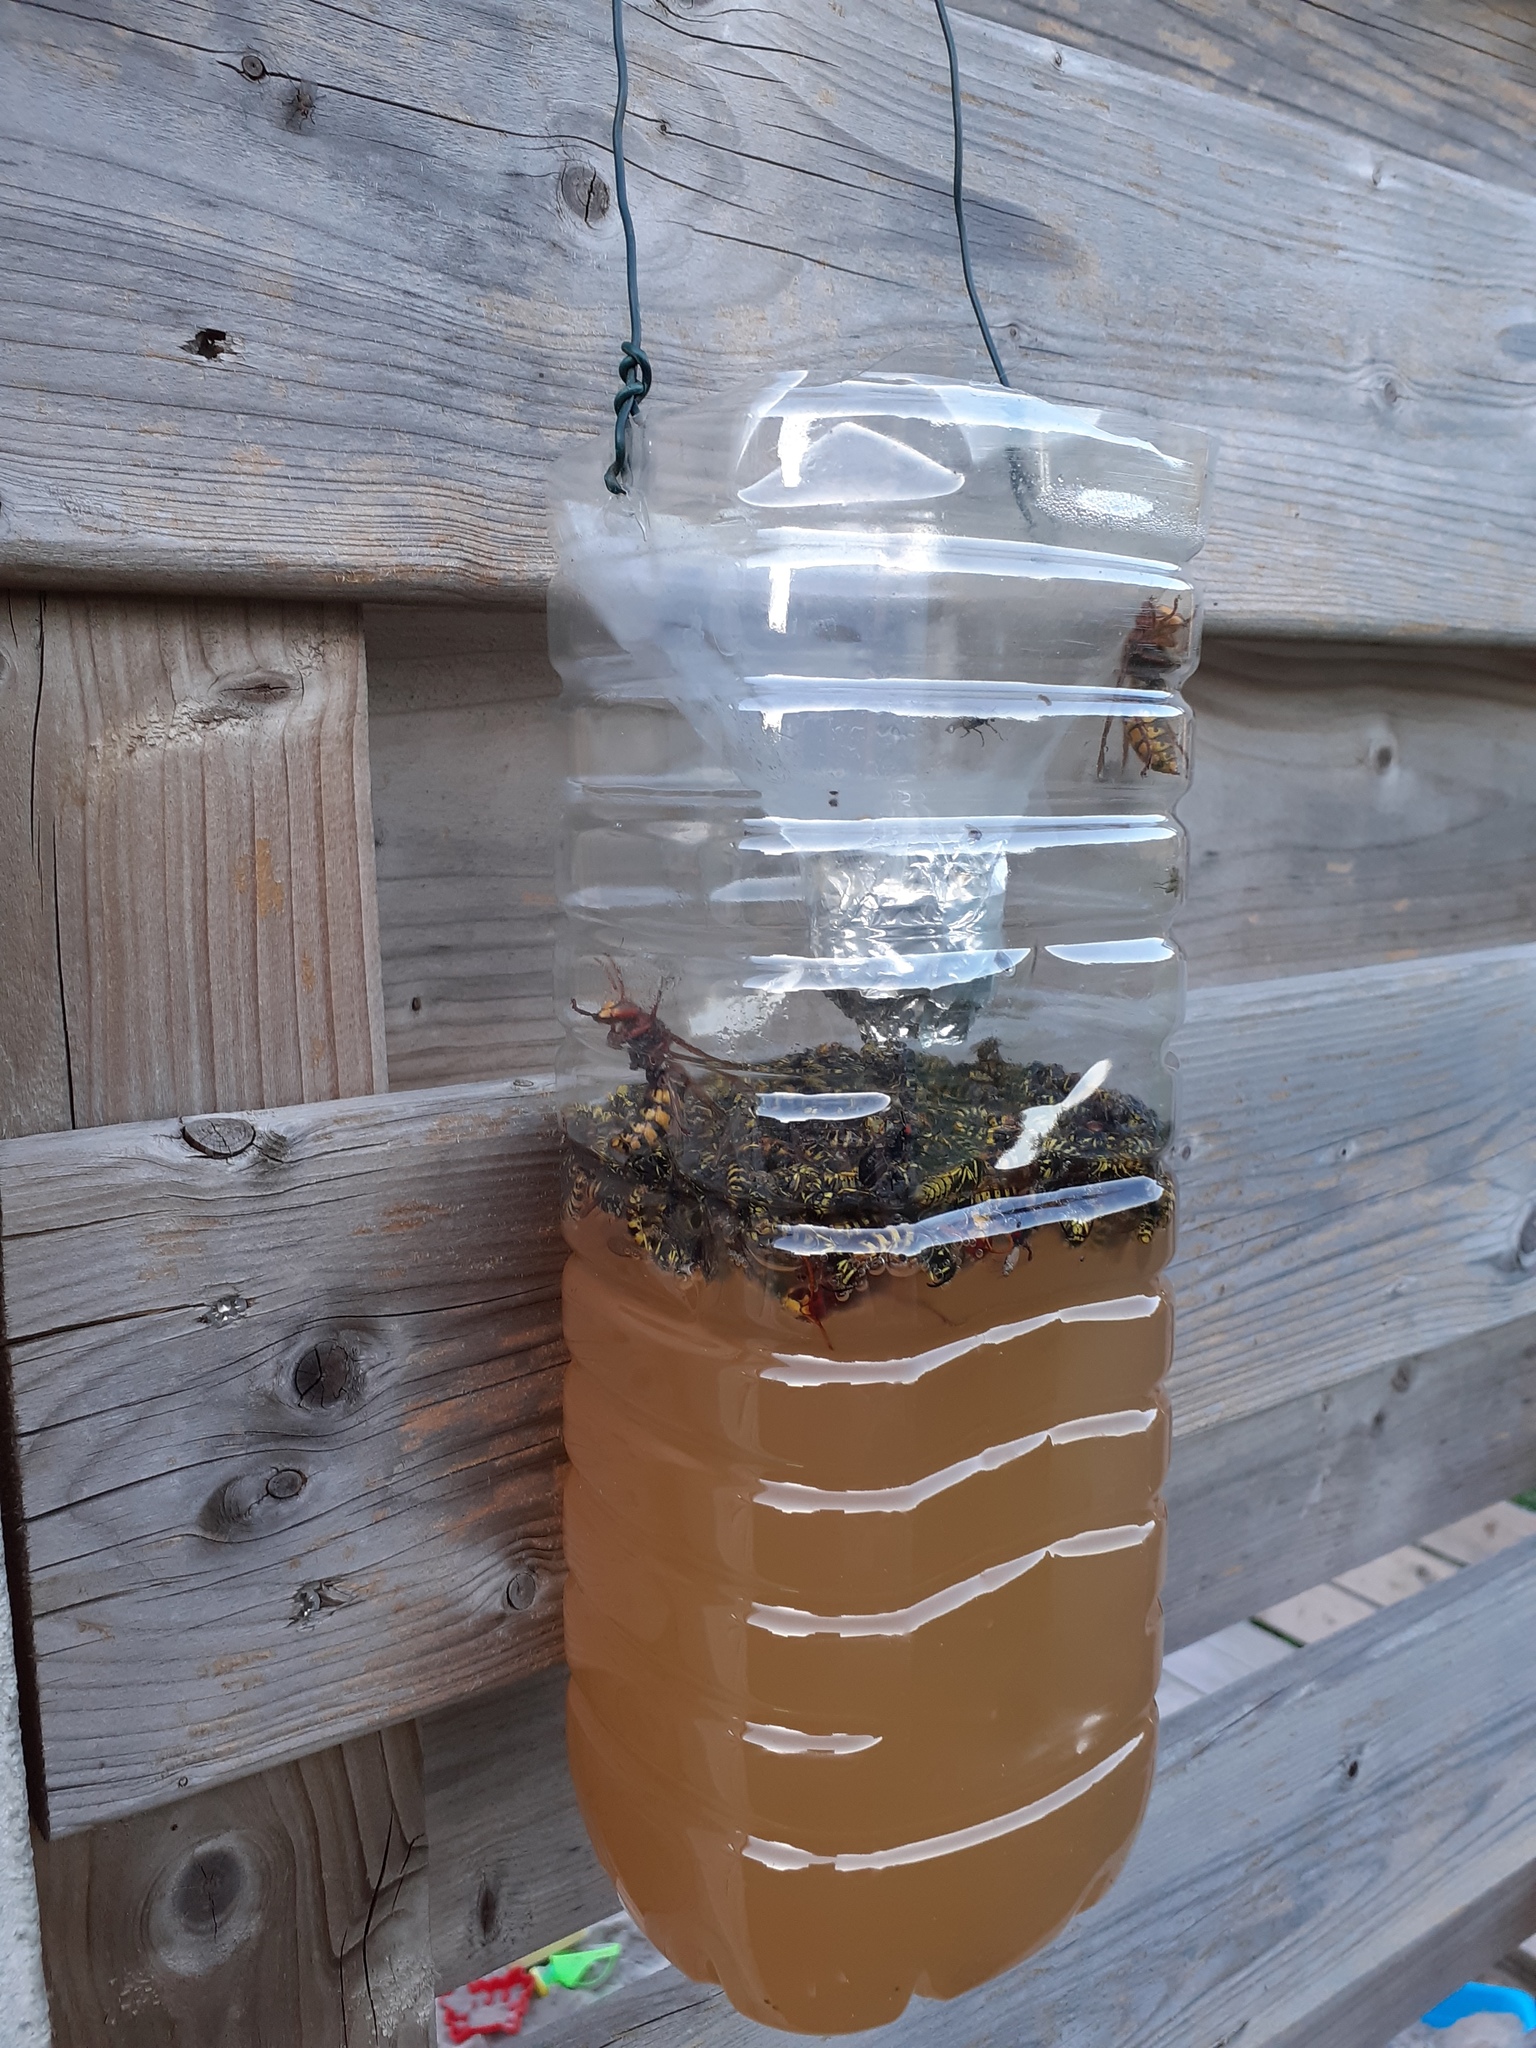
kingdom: Animalia
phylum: Arthropoda
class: Insecta
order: Hymenoptera
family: Vespidae
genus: Vespa
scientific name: Vespa crabro
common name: Hornet
